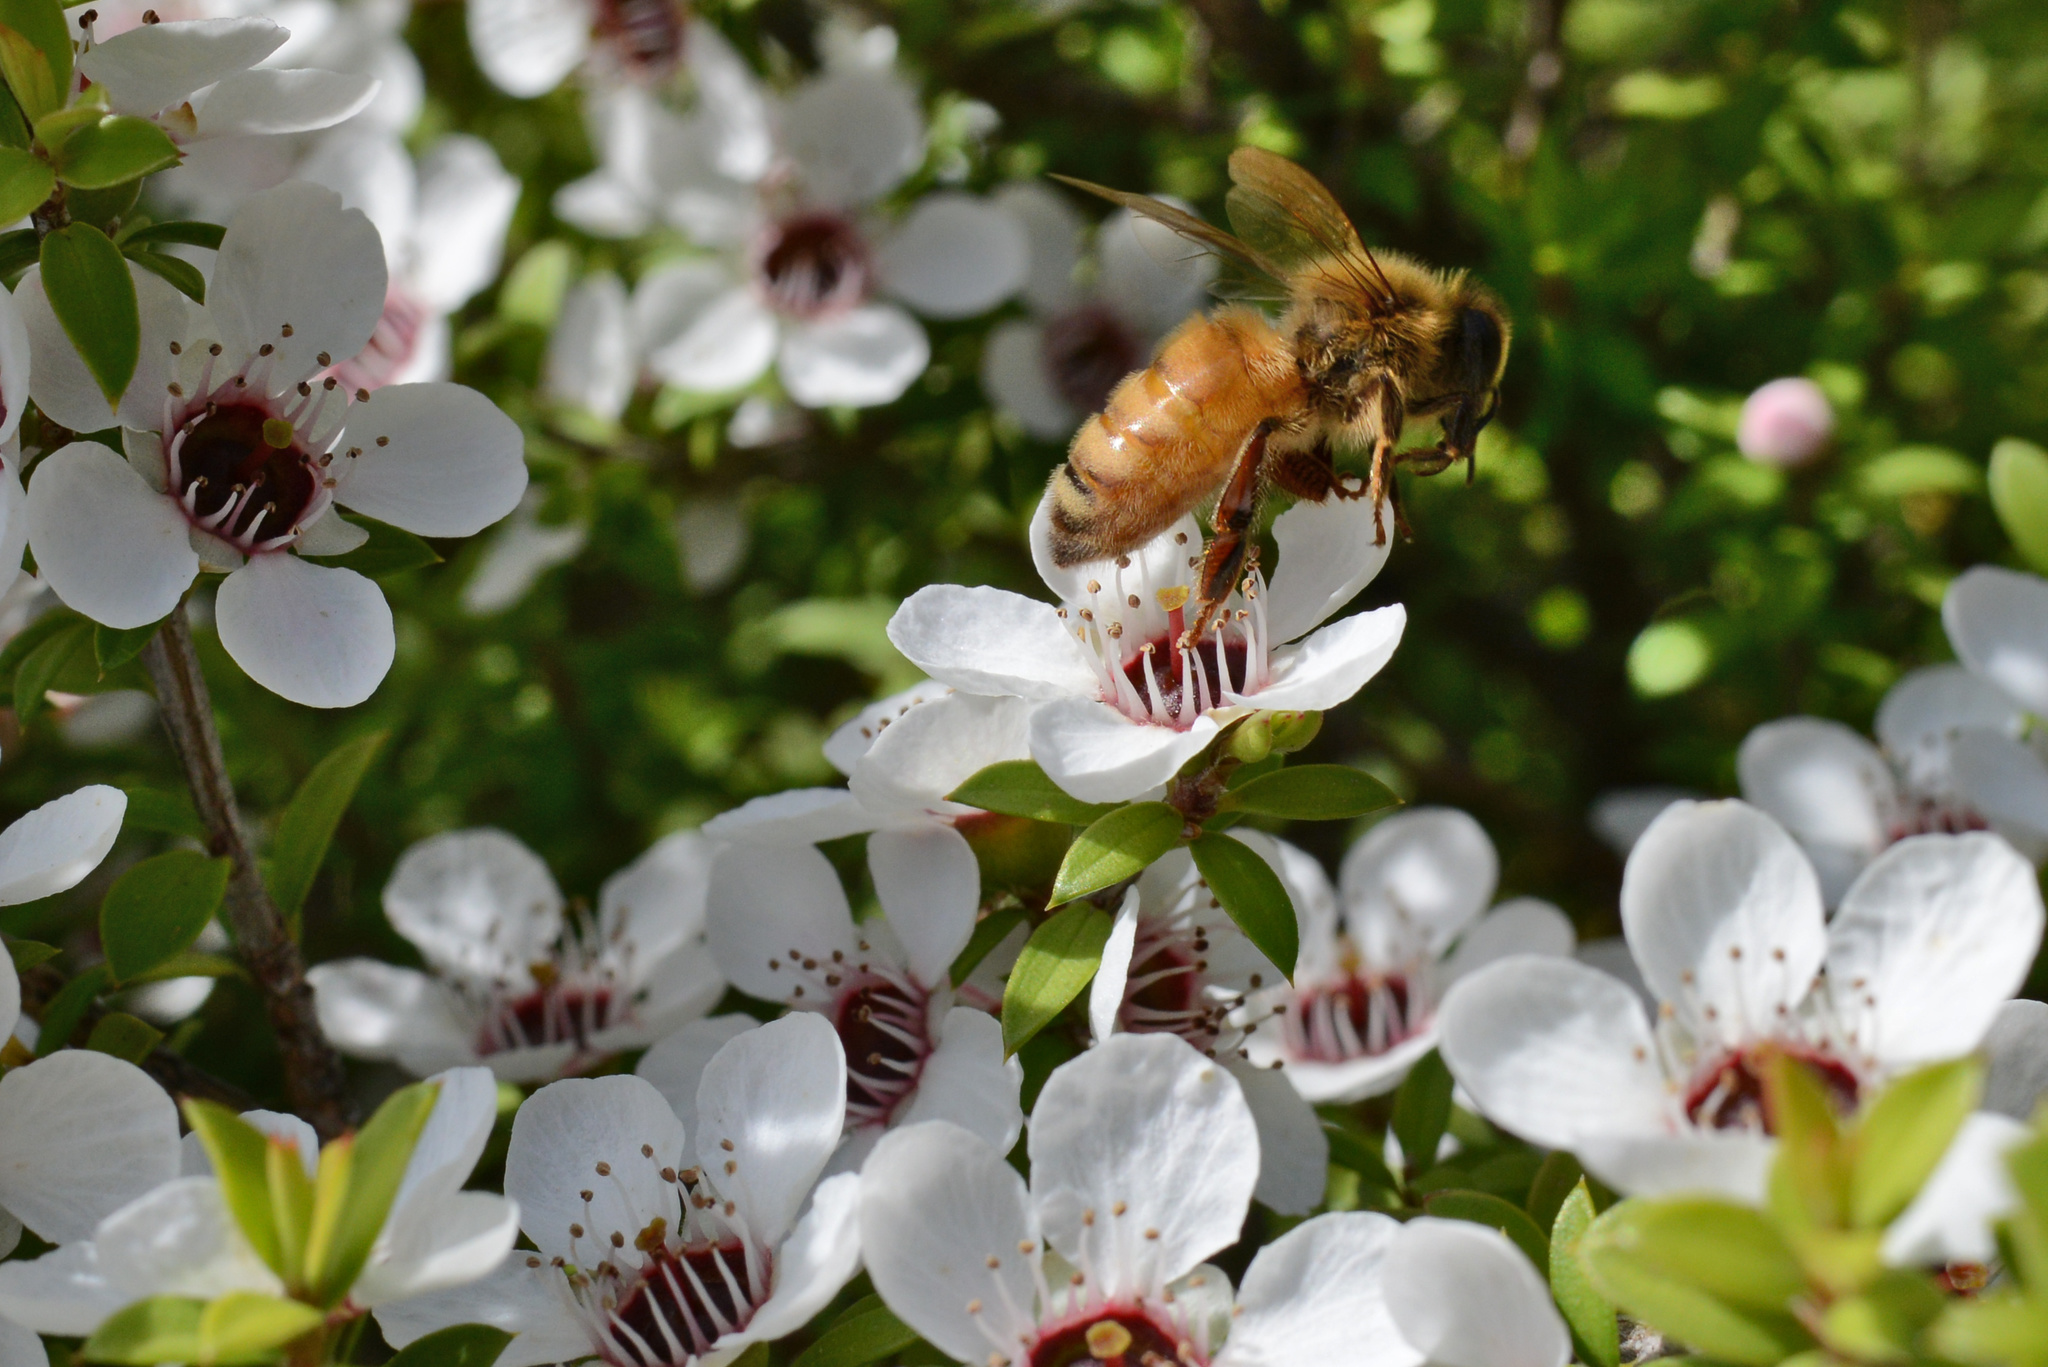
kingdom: Animalia
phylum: Arthropoda
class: Insecta
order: Hymenoptera
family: Apidae
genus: Apis
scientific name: Apis mellifera
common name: Honey bee
